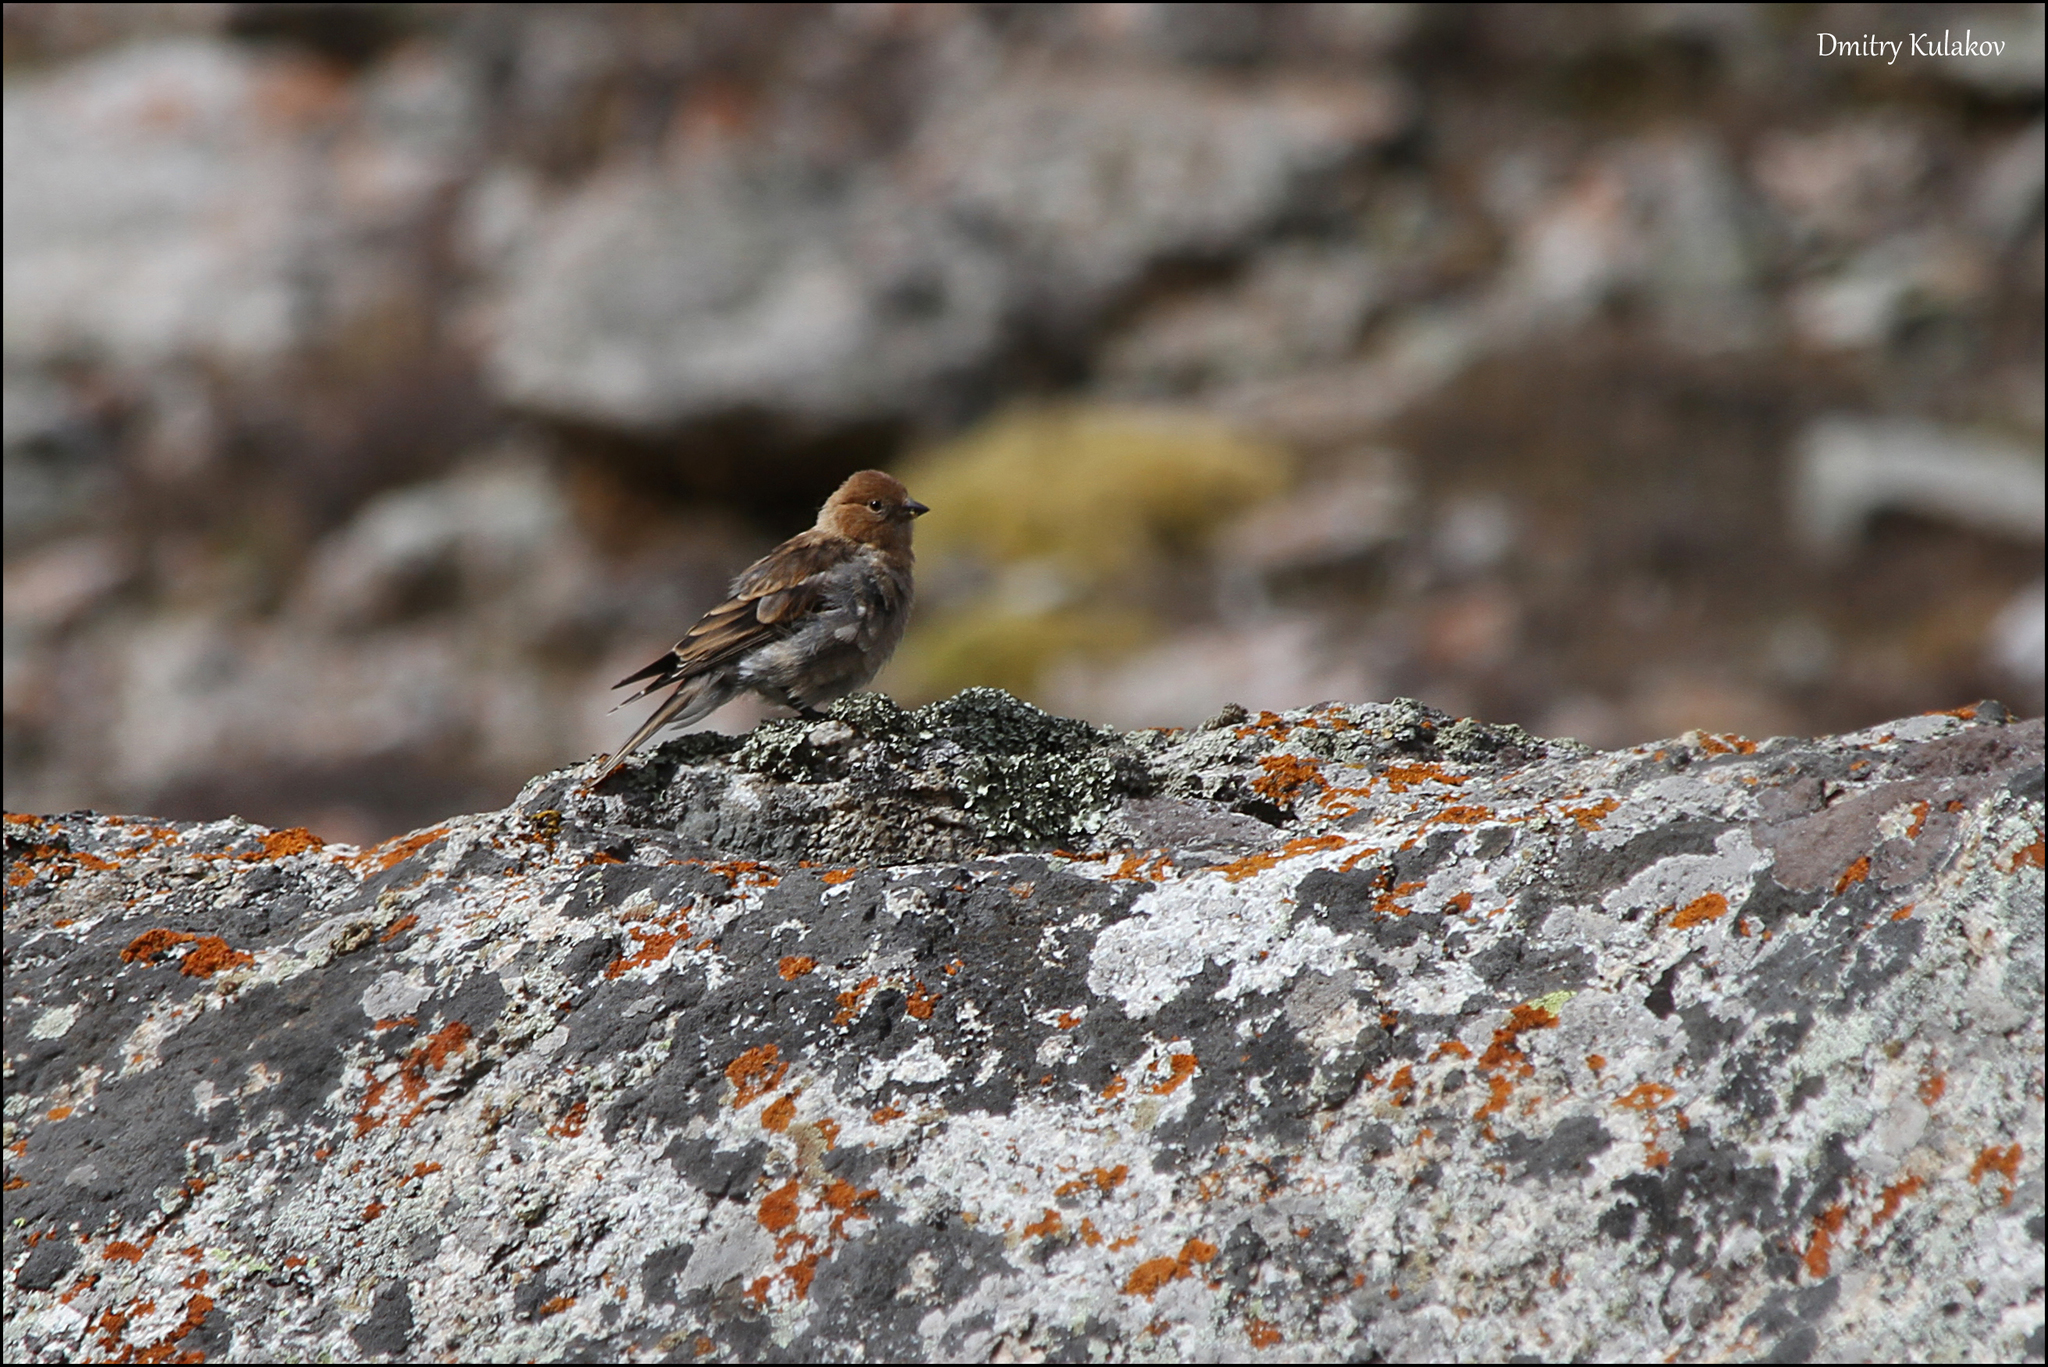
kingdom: Animalia
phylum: Chordata
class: Aves
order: Passeriformes
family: Fringillidae
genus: Leucosticte
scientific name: Leucosticte nemoricola
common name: Plain mountain finch
